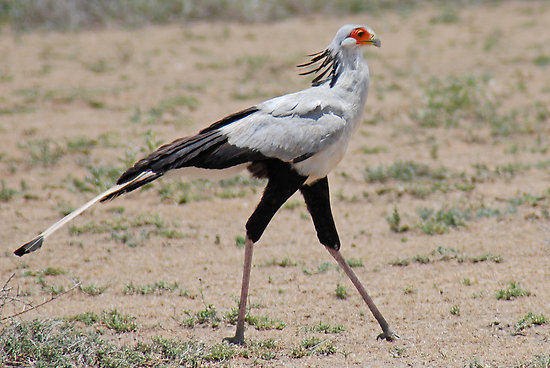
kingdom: Animalia
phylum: Chordata
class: Aves
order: Accipitriformes
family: Sagittariidae
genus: Sagittarius
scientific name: Sagittarius serpentarius
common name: Secretarybird
